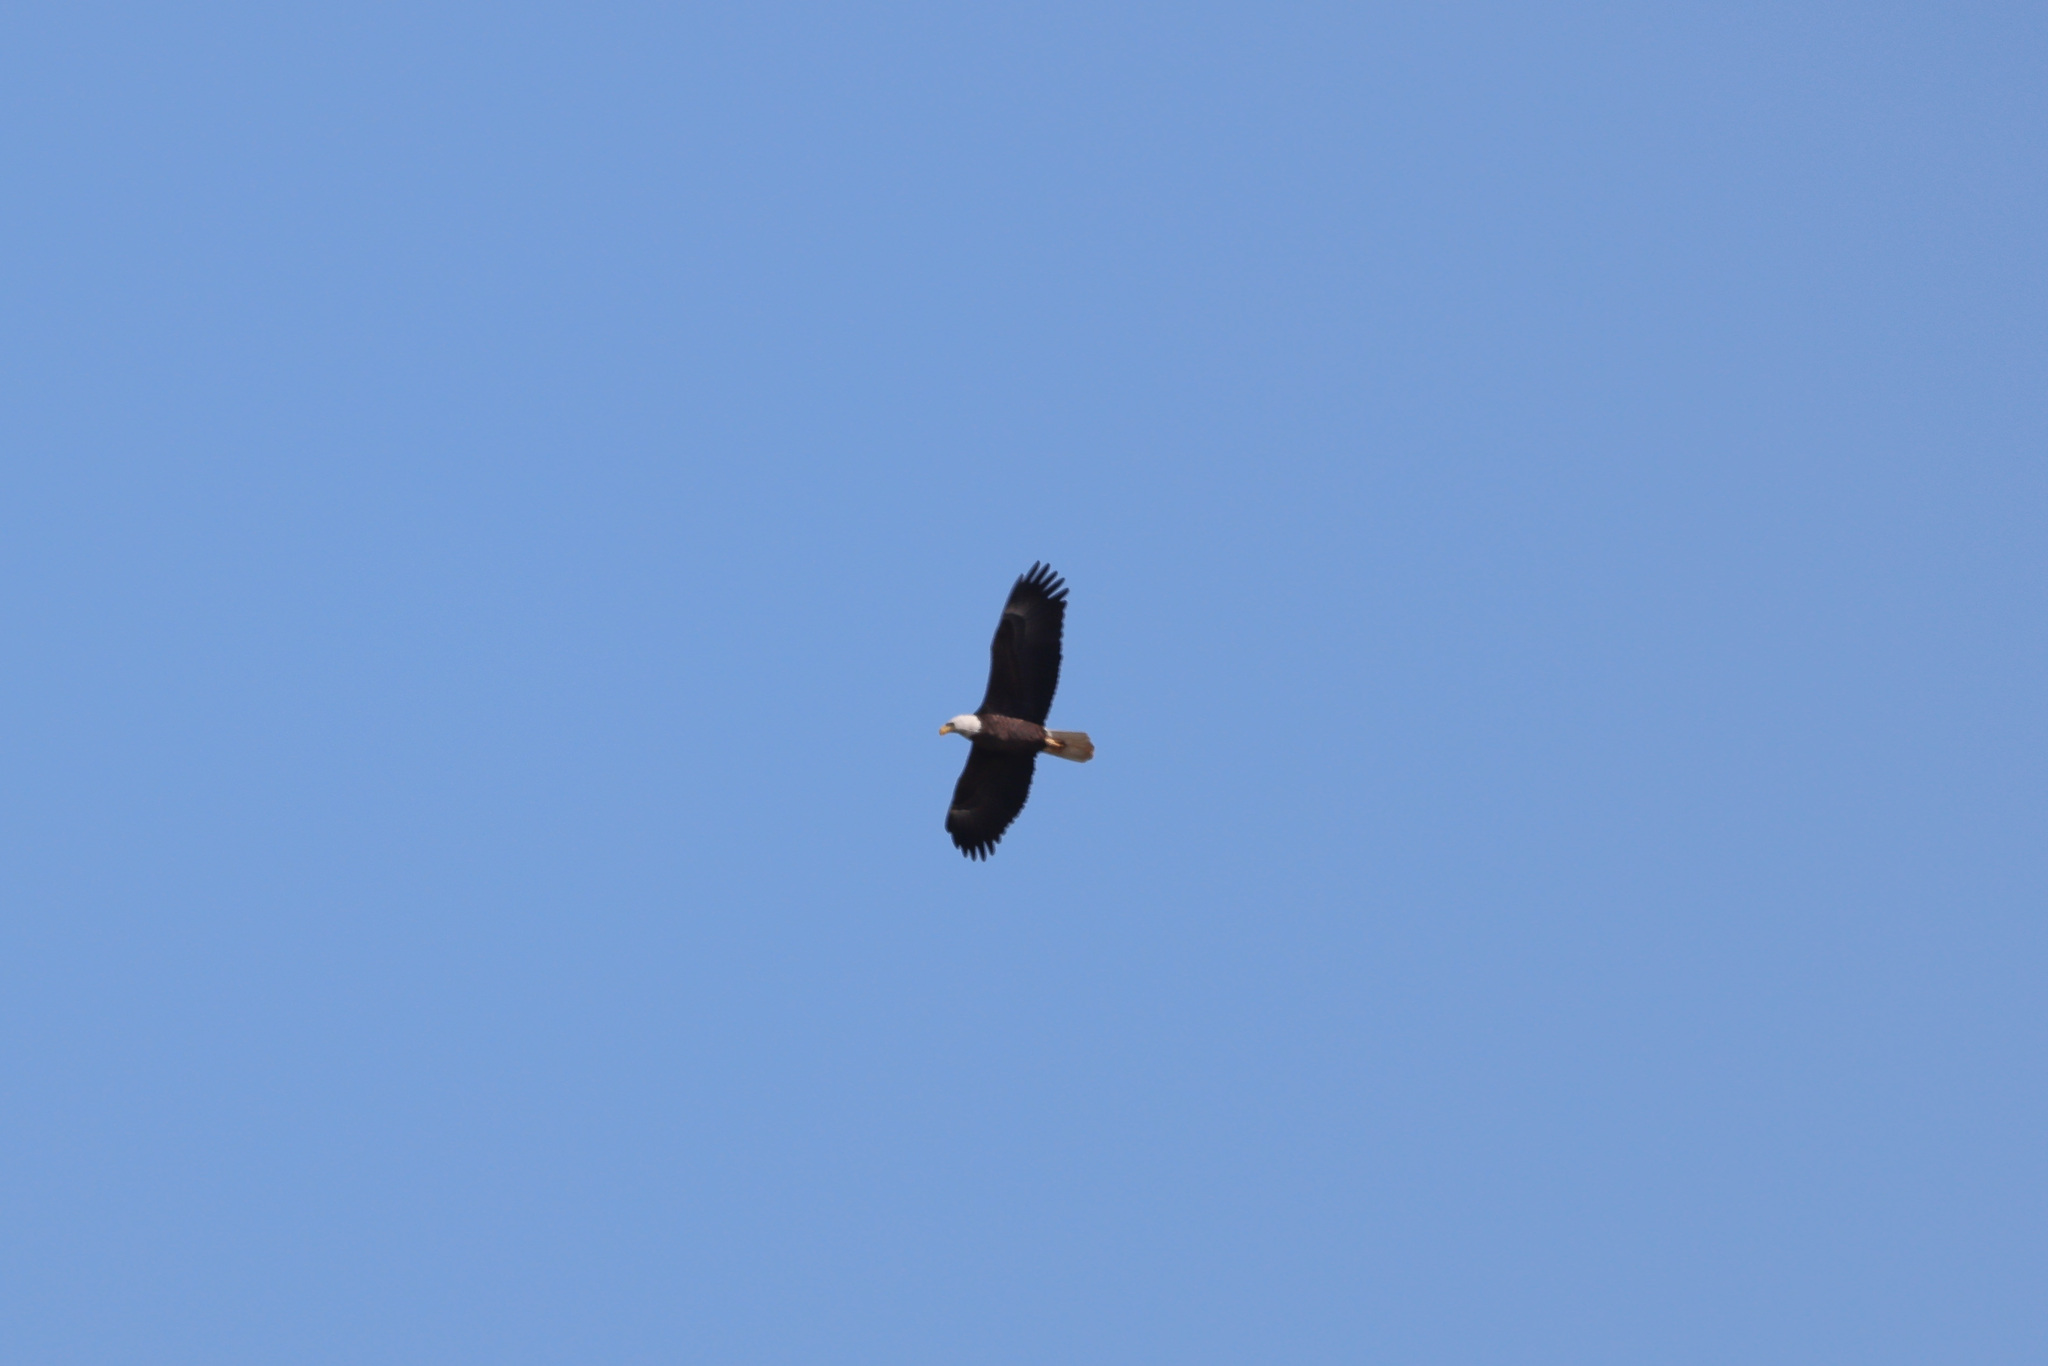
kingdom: Animalia
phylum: Chordata
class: Aves
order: Accipitriformes
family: Accipitridae
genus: Haliaeetus
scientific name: Haliaeetus leucocephalus
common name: Bald eagle
